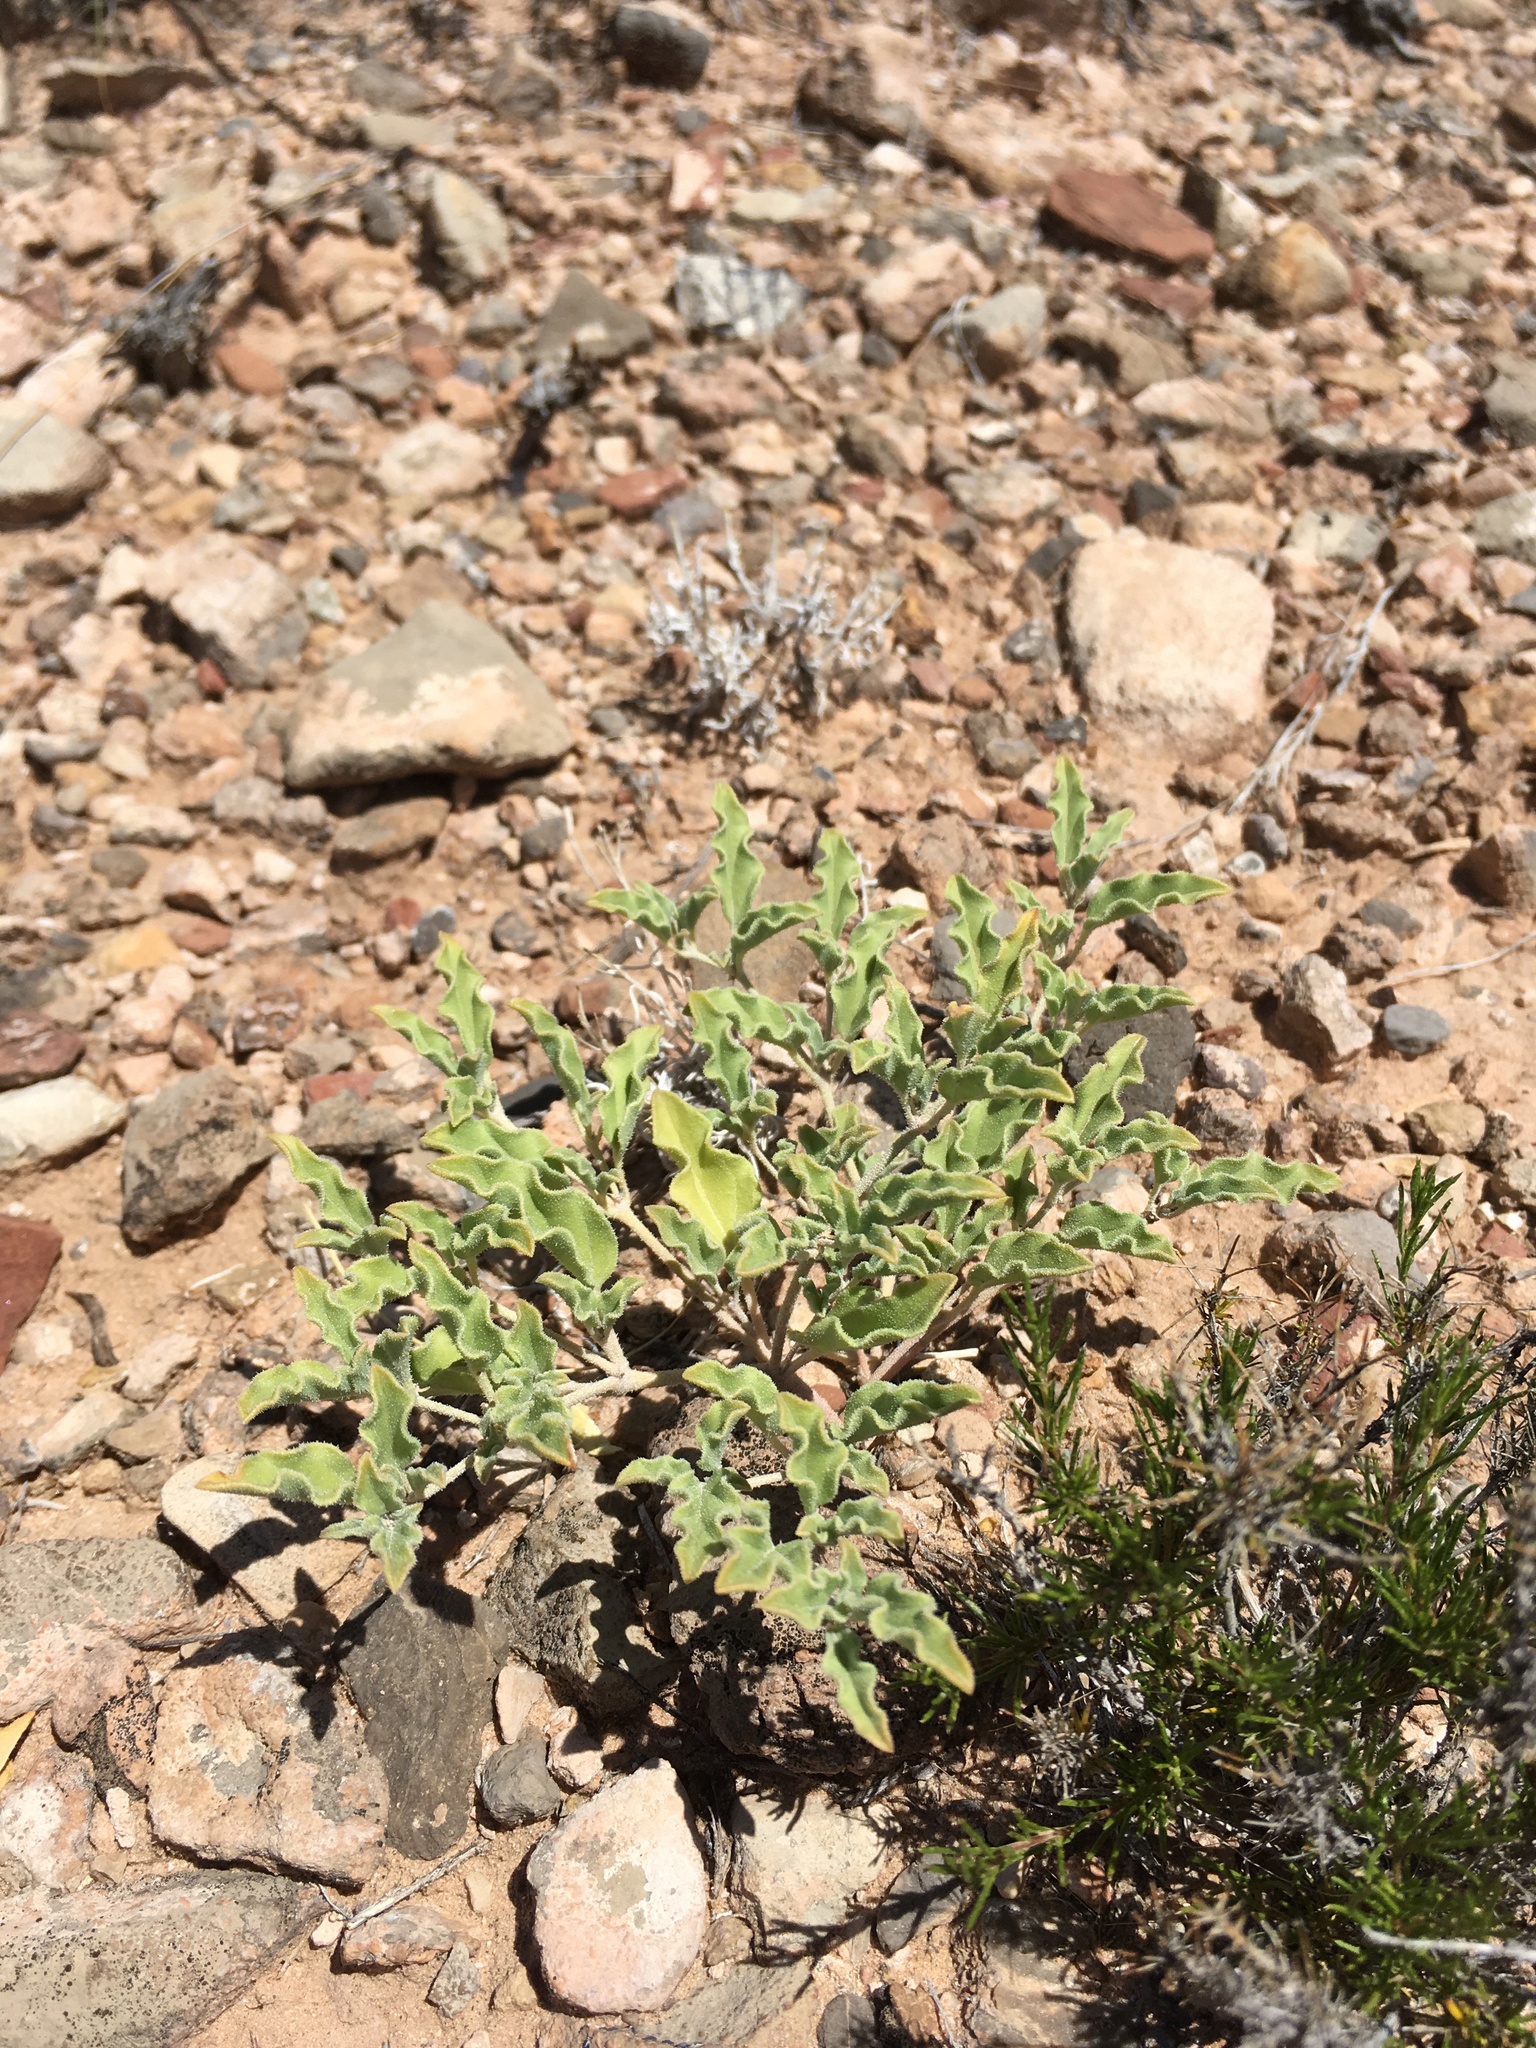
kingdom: Plantae
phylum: Tracheophyta
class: Magnoliopsida
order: Caryophyllales
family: Nyctaginaceae
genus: Acleisanthes
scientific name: Acleisanthes diffusa
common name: Spreading moonpod
